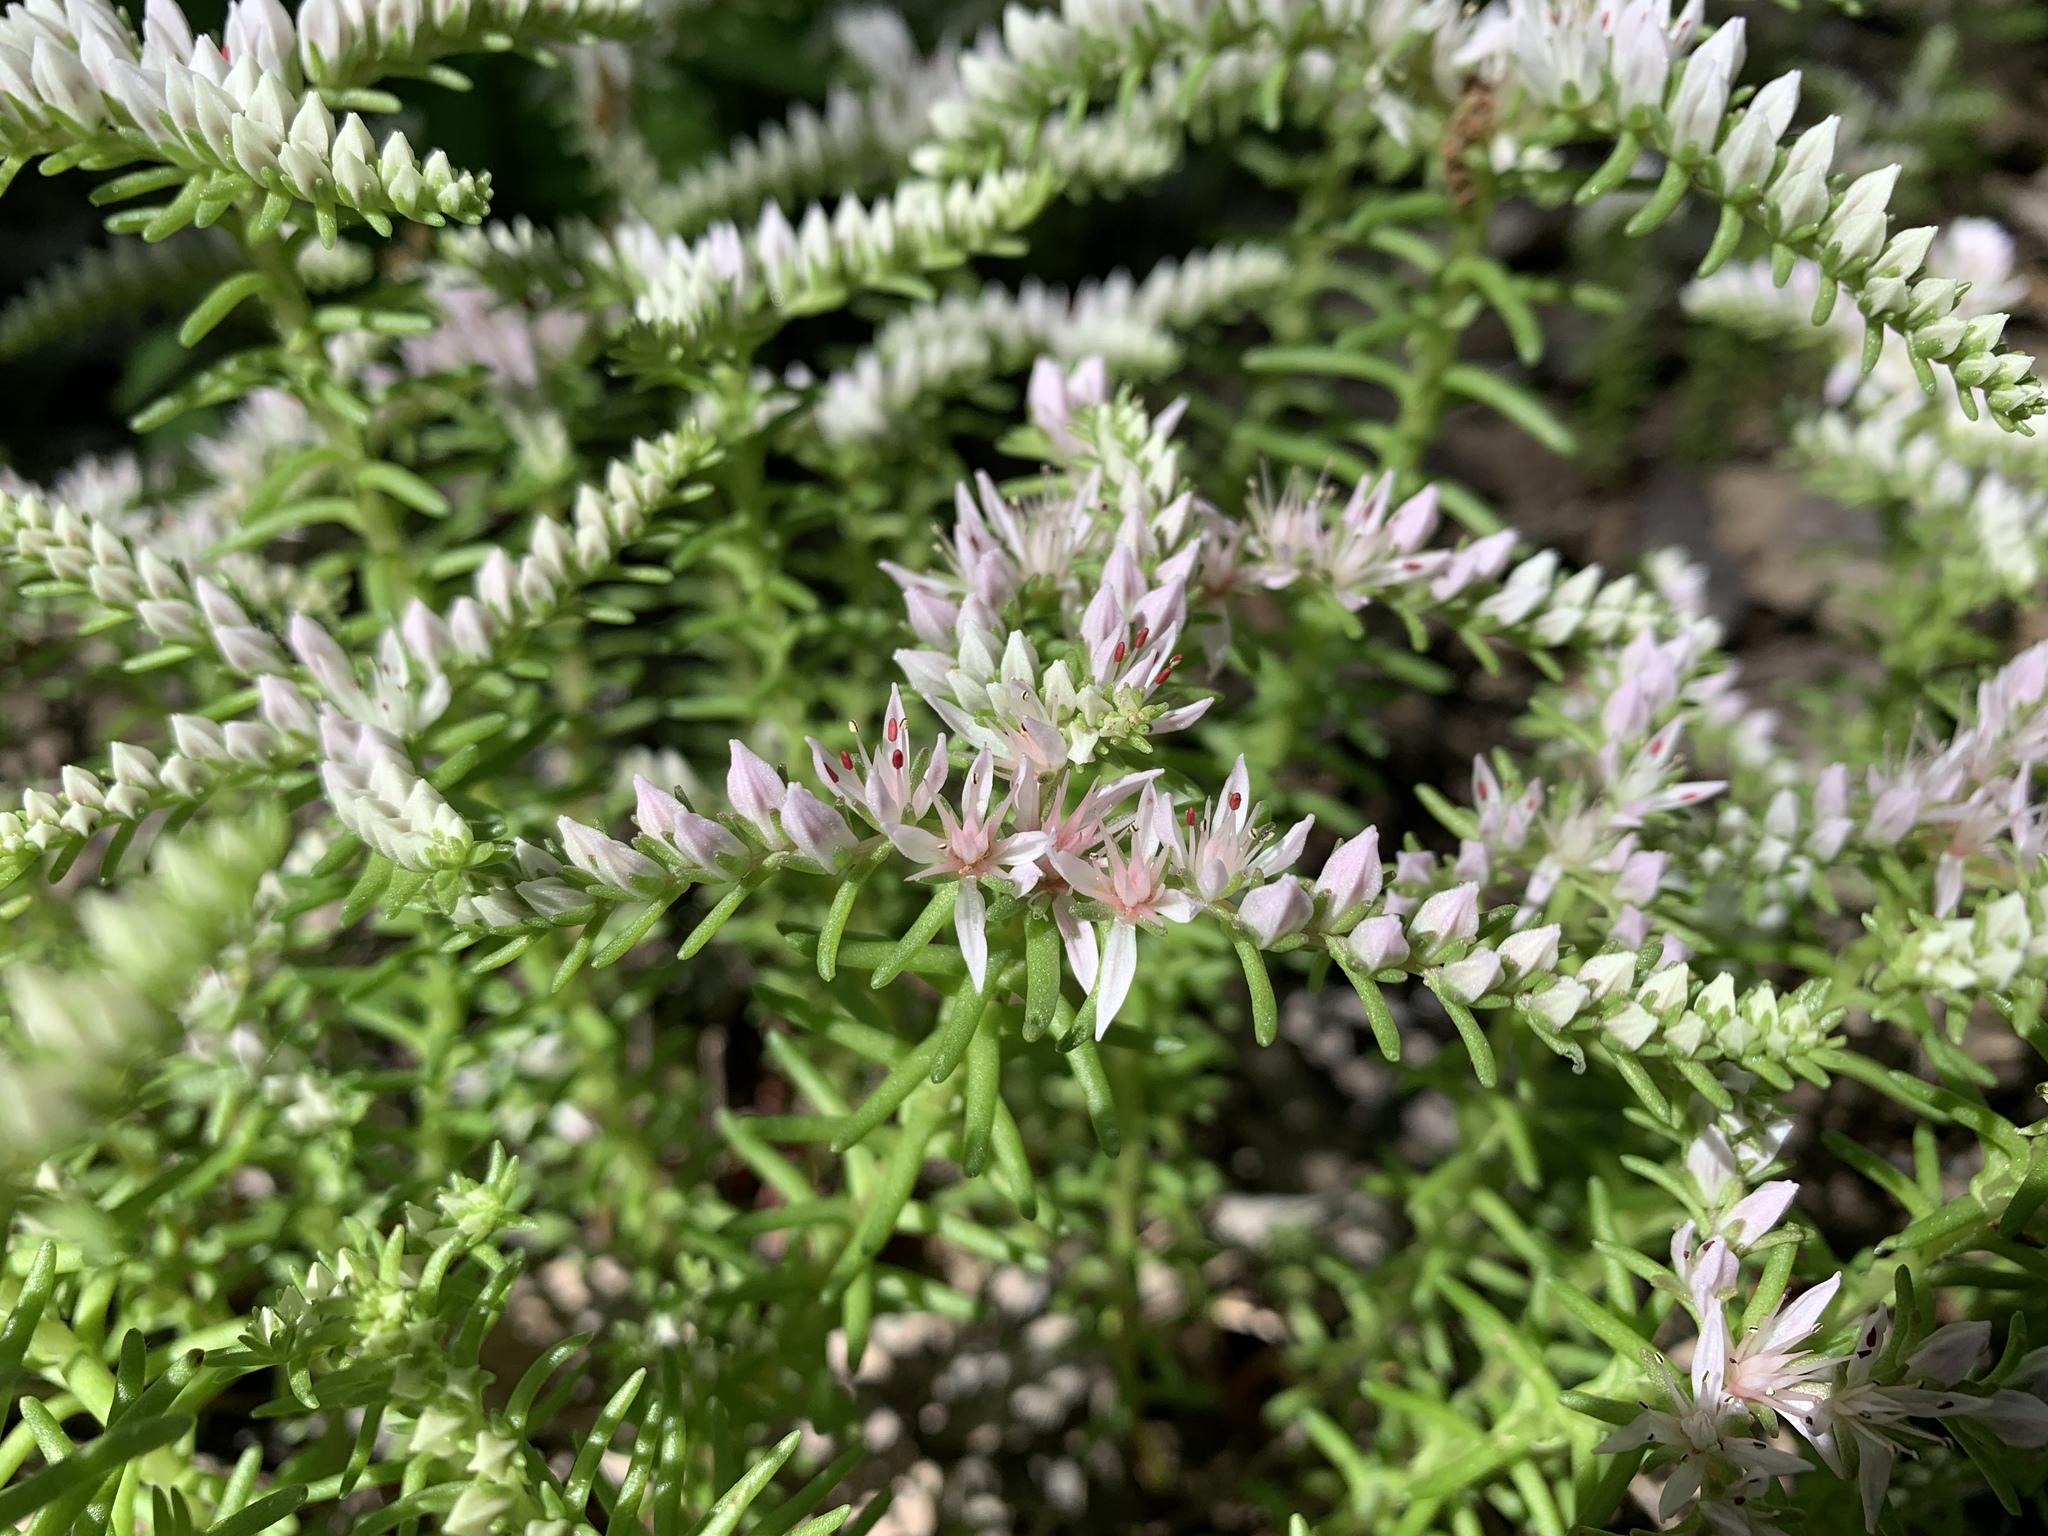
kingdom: Plantae
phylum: Tracheophyta
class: Magnoliopsida
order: Saxifragales
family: Crassulaceae
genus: Sedum
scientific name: Sedum pulchellum
